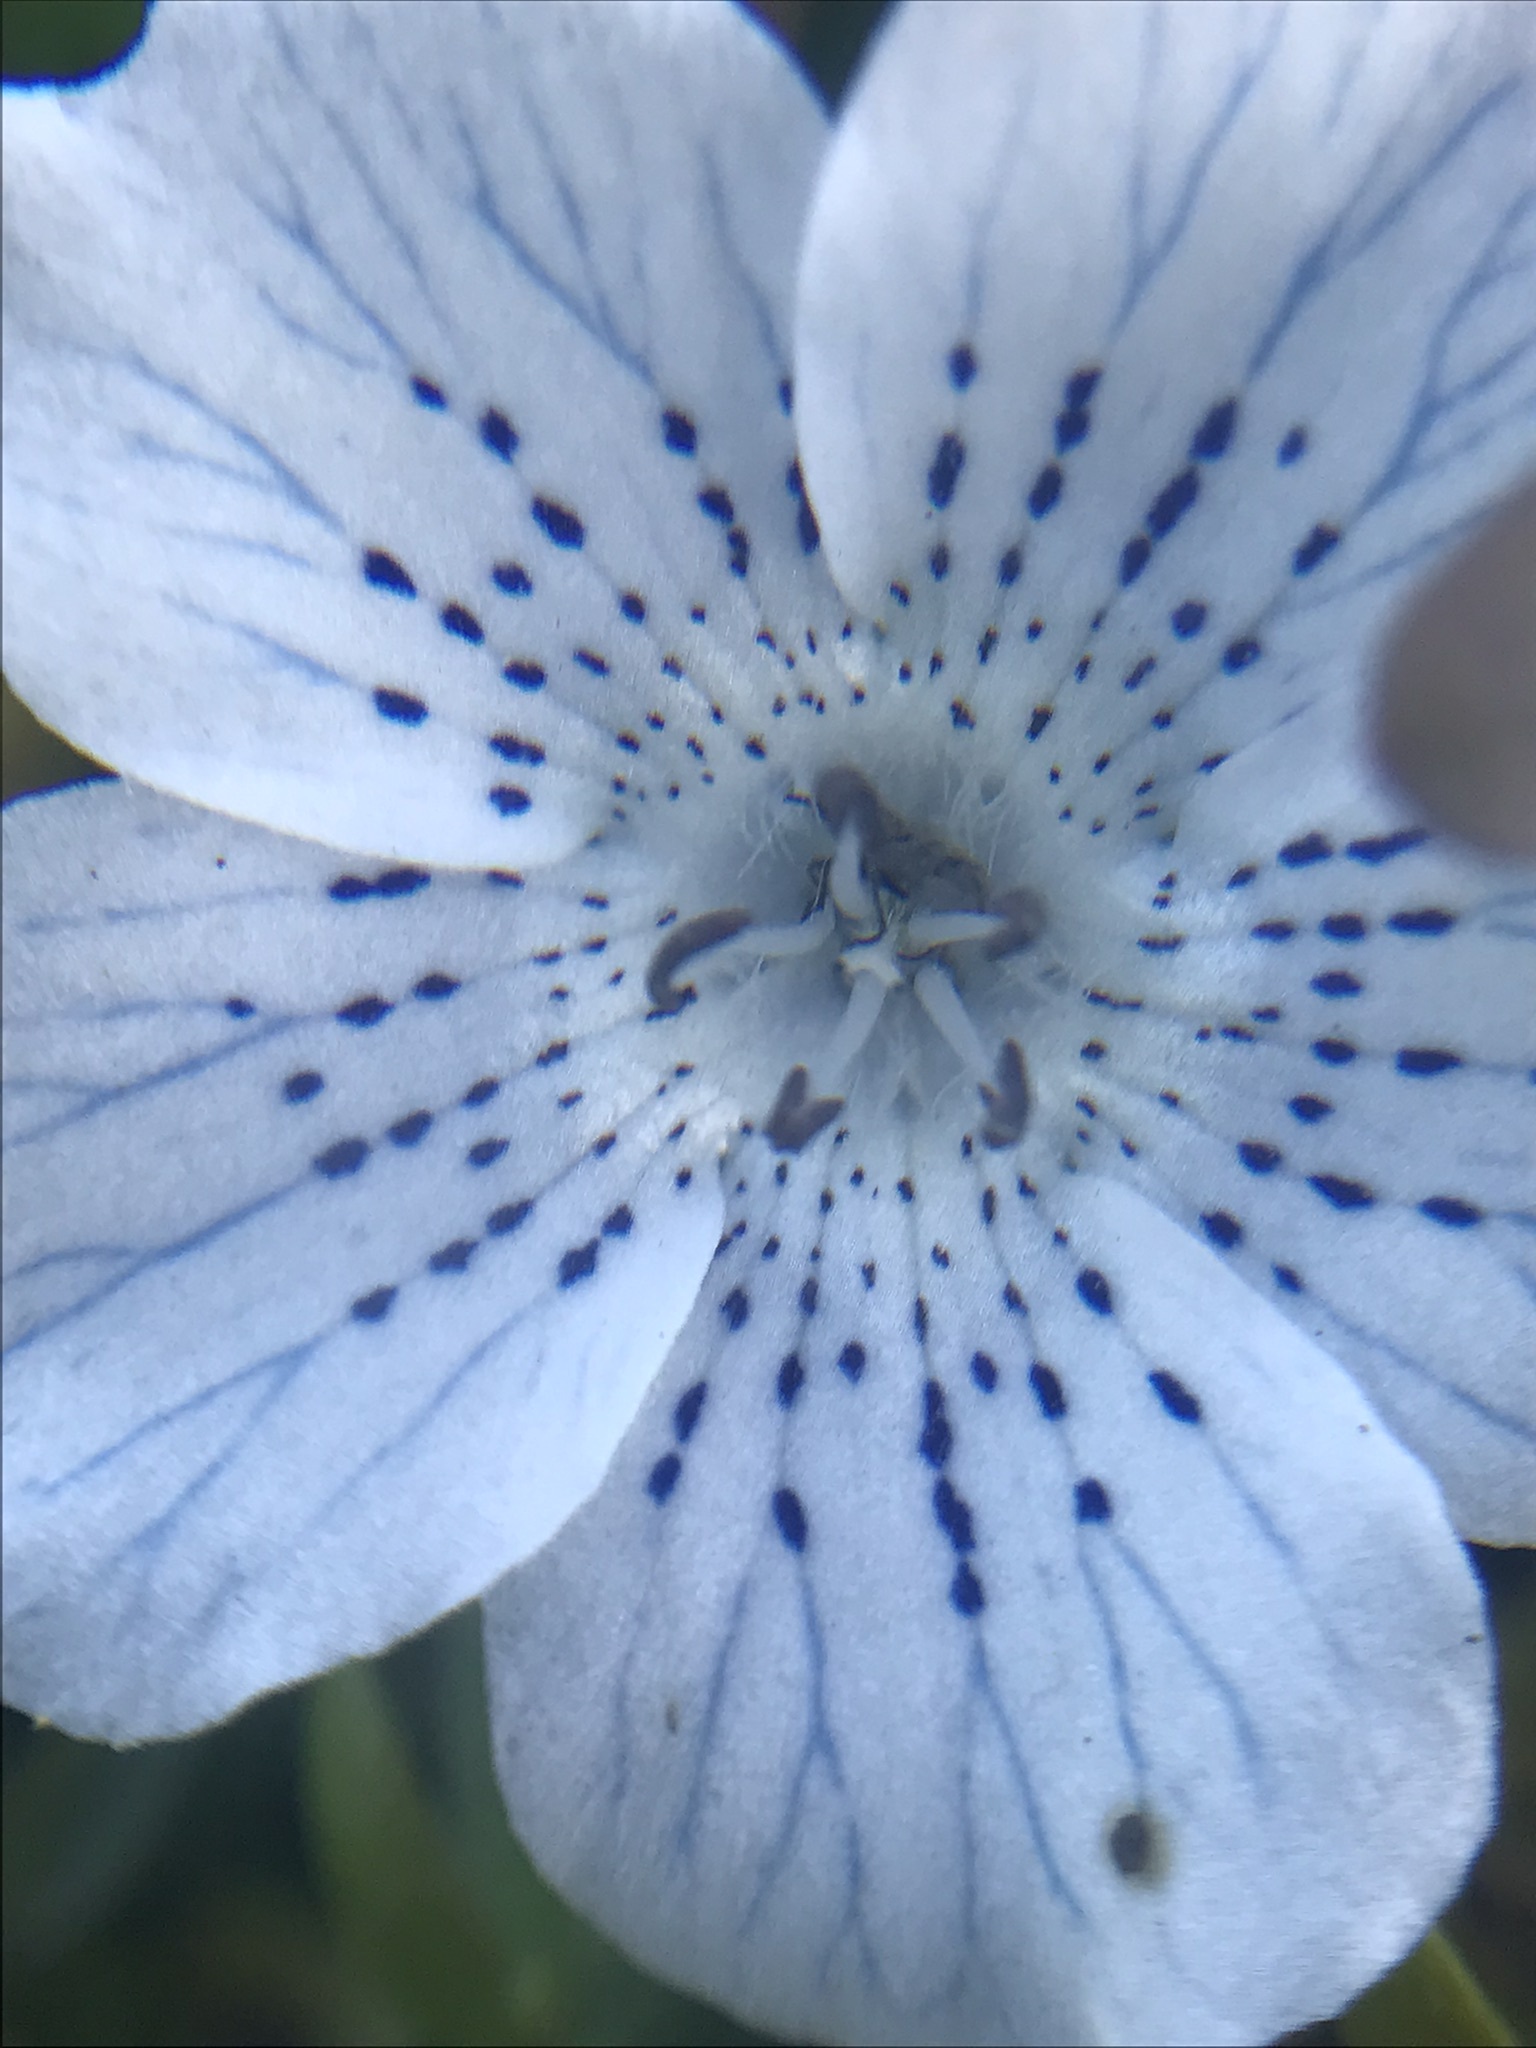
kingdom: Plantae
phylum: Tracheophyta
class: Magnoliopsida
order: Boraginales
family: Hydrophyllaceae
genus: Nemophila
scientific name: Nemophila menziesii
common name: Baby's-blue-eyes
